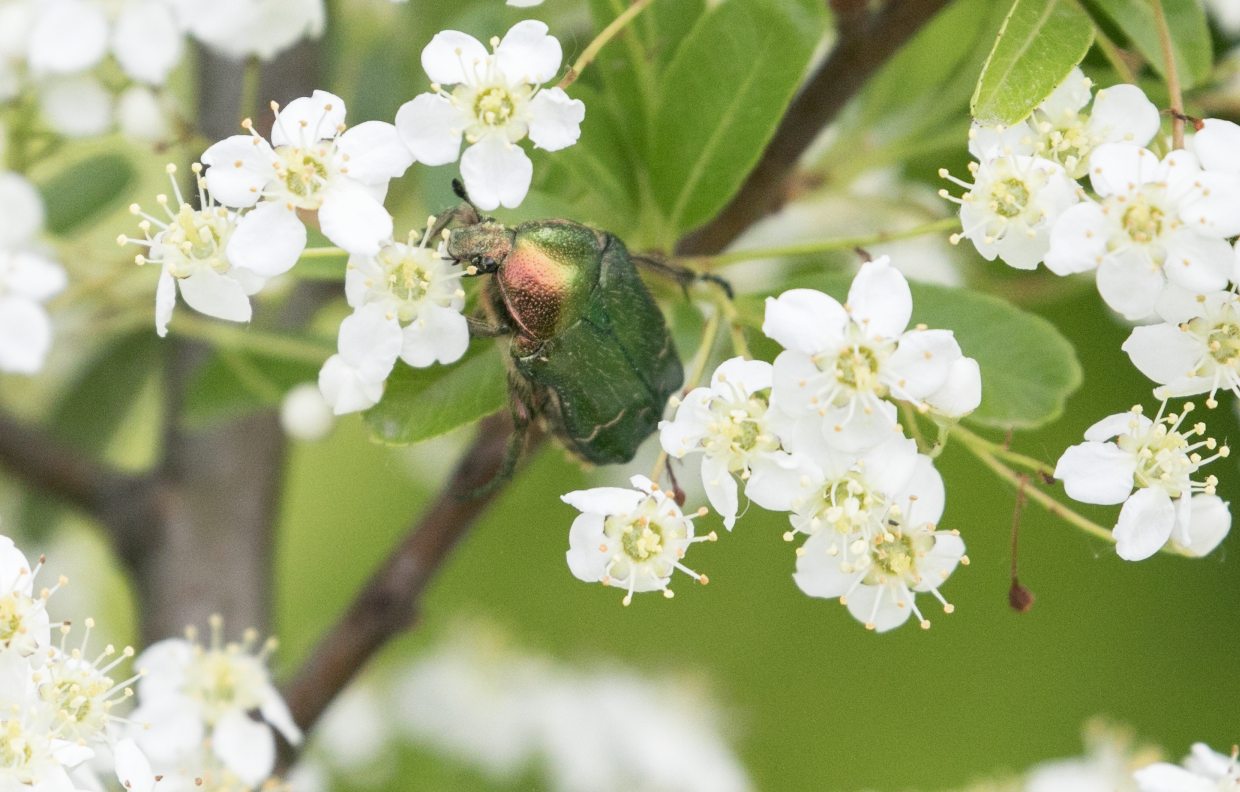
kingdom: Animalia
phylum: Arthropoda
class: Insecta
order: Coleoptera
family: Scarabaeidae
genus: Cetonia
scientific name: Cetonia aurata
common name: Rose chafer
